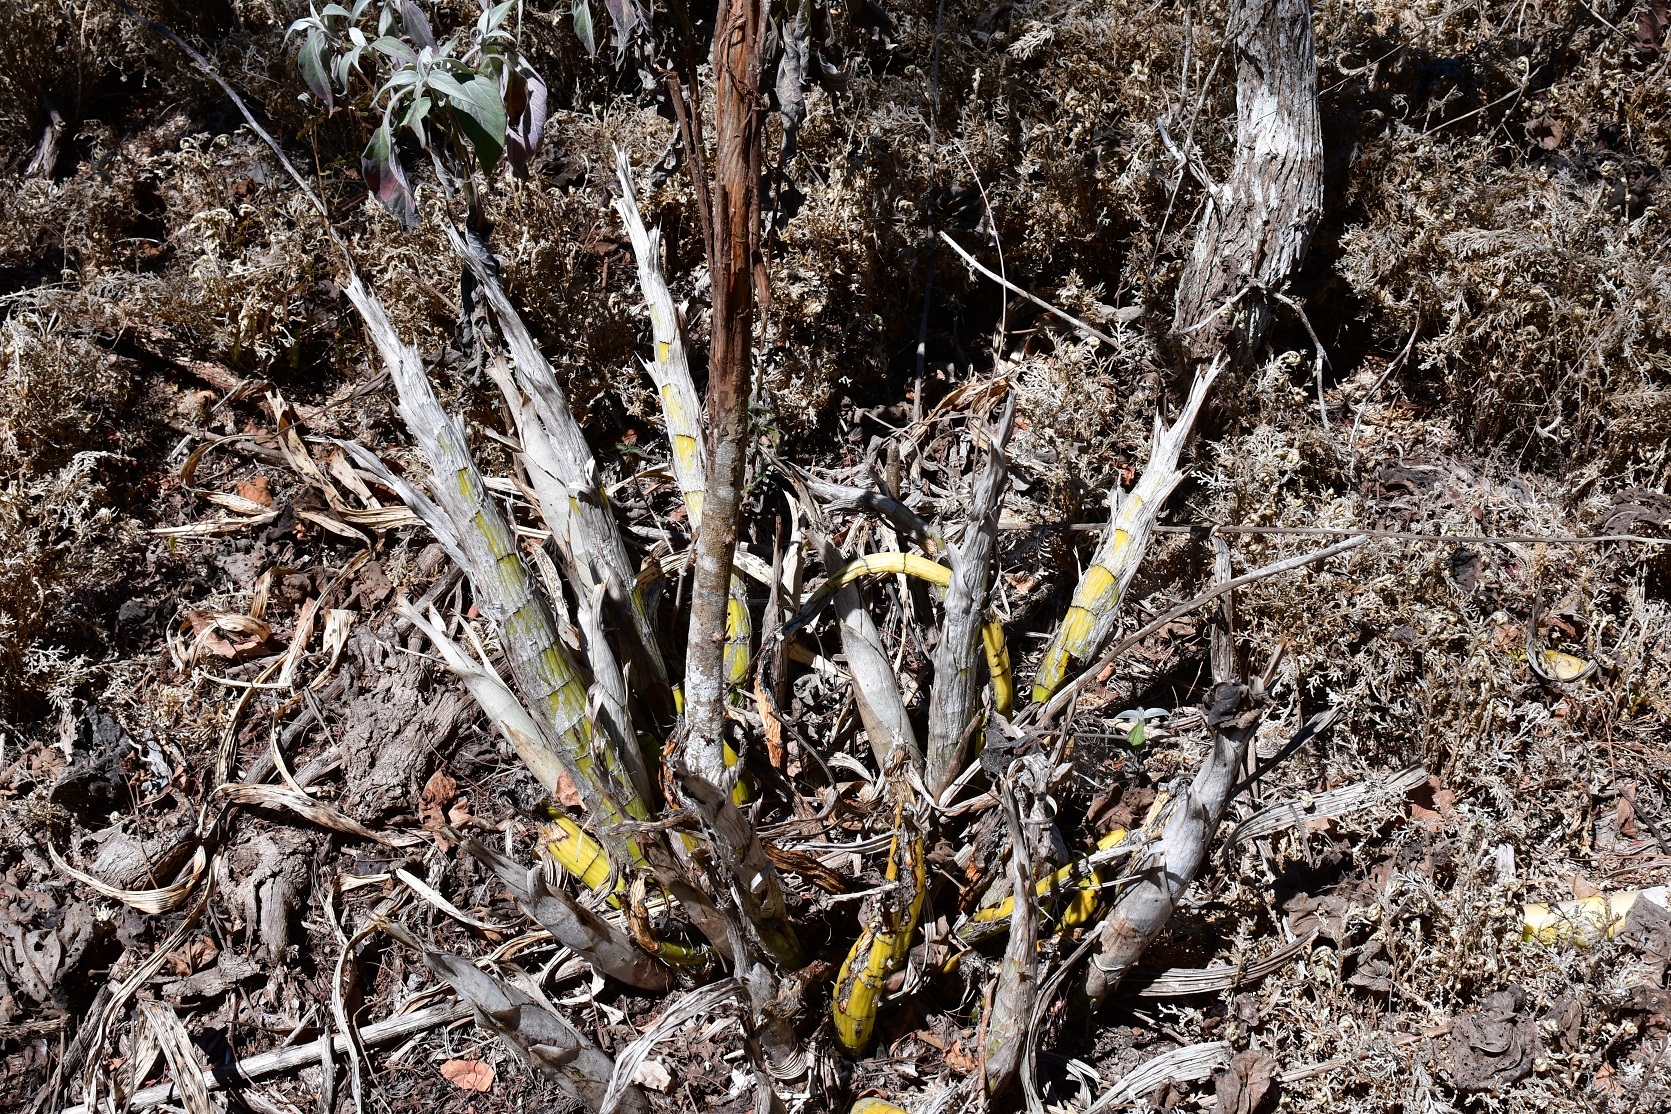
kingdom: Plantae
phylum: Tracheophyta
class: Liliopsida
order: Asparagales
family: Orchidaceae
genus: Cyrtopodium
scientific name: Cyrtopodium macrobulbon
